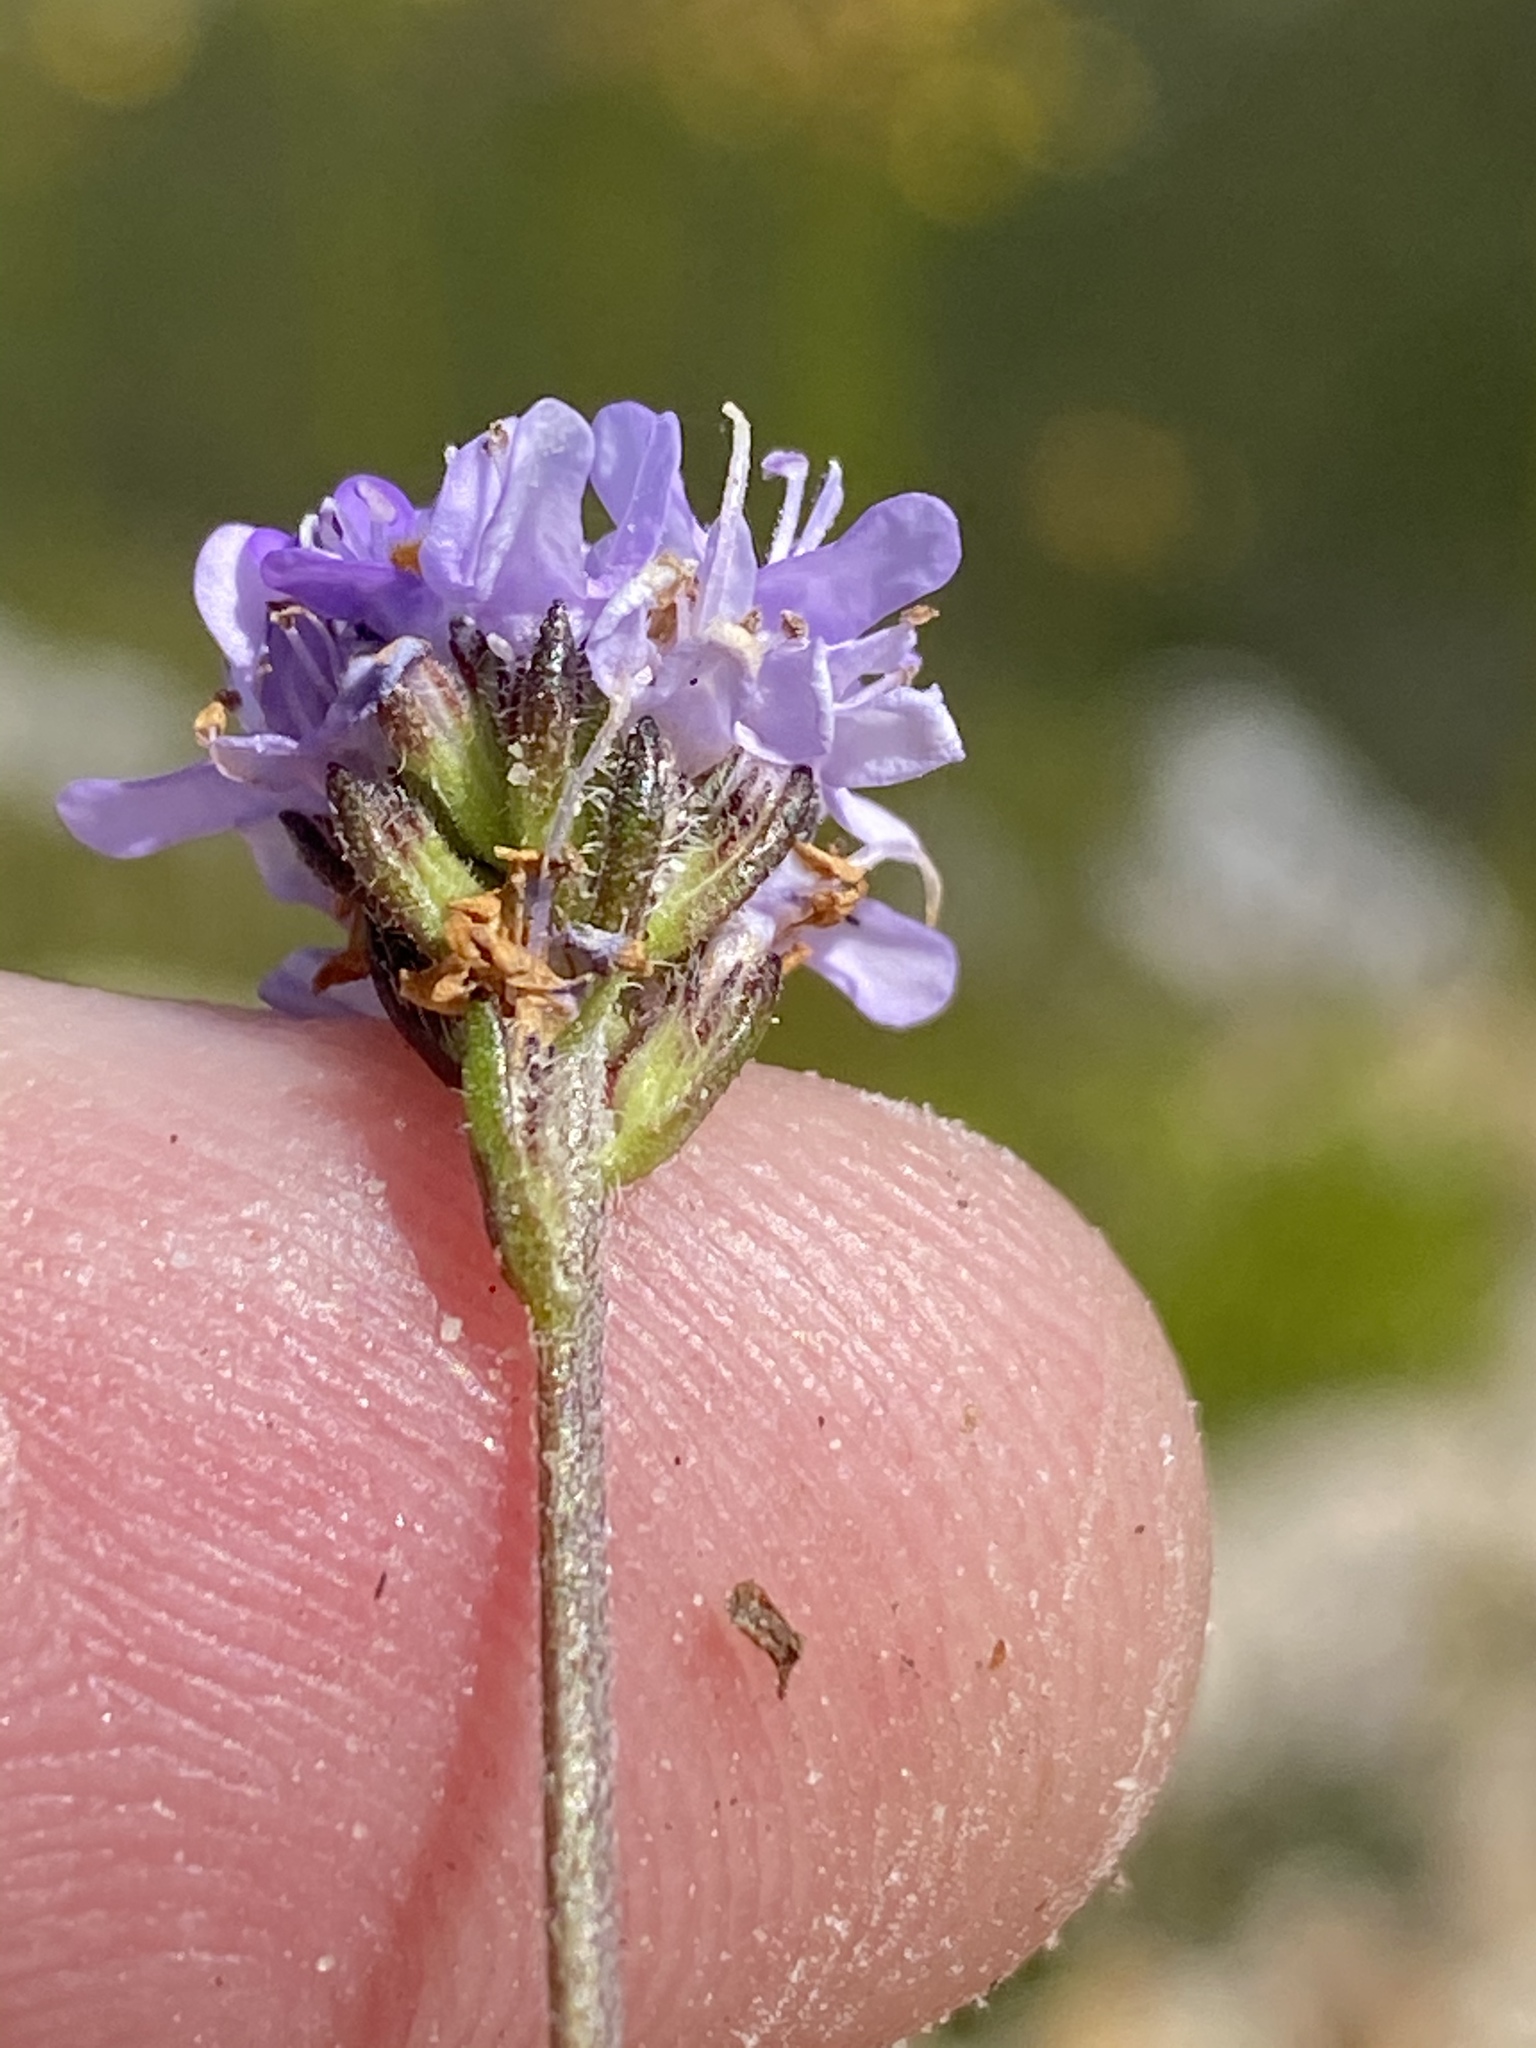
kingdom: Plantae
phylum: Tracheophyta
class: Magnoliopsida
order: Lamiales
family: Scrophulariaceae
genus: Pseudoselago
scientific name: Pseudoselago bella
